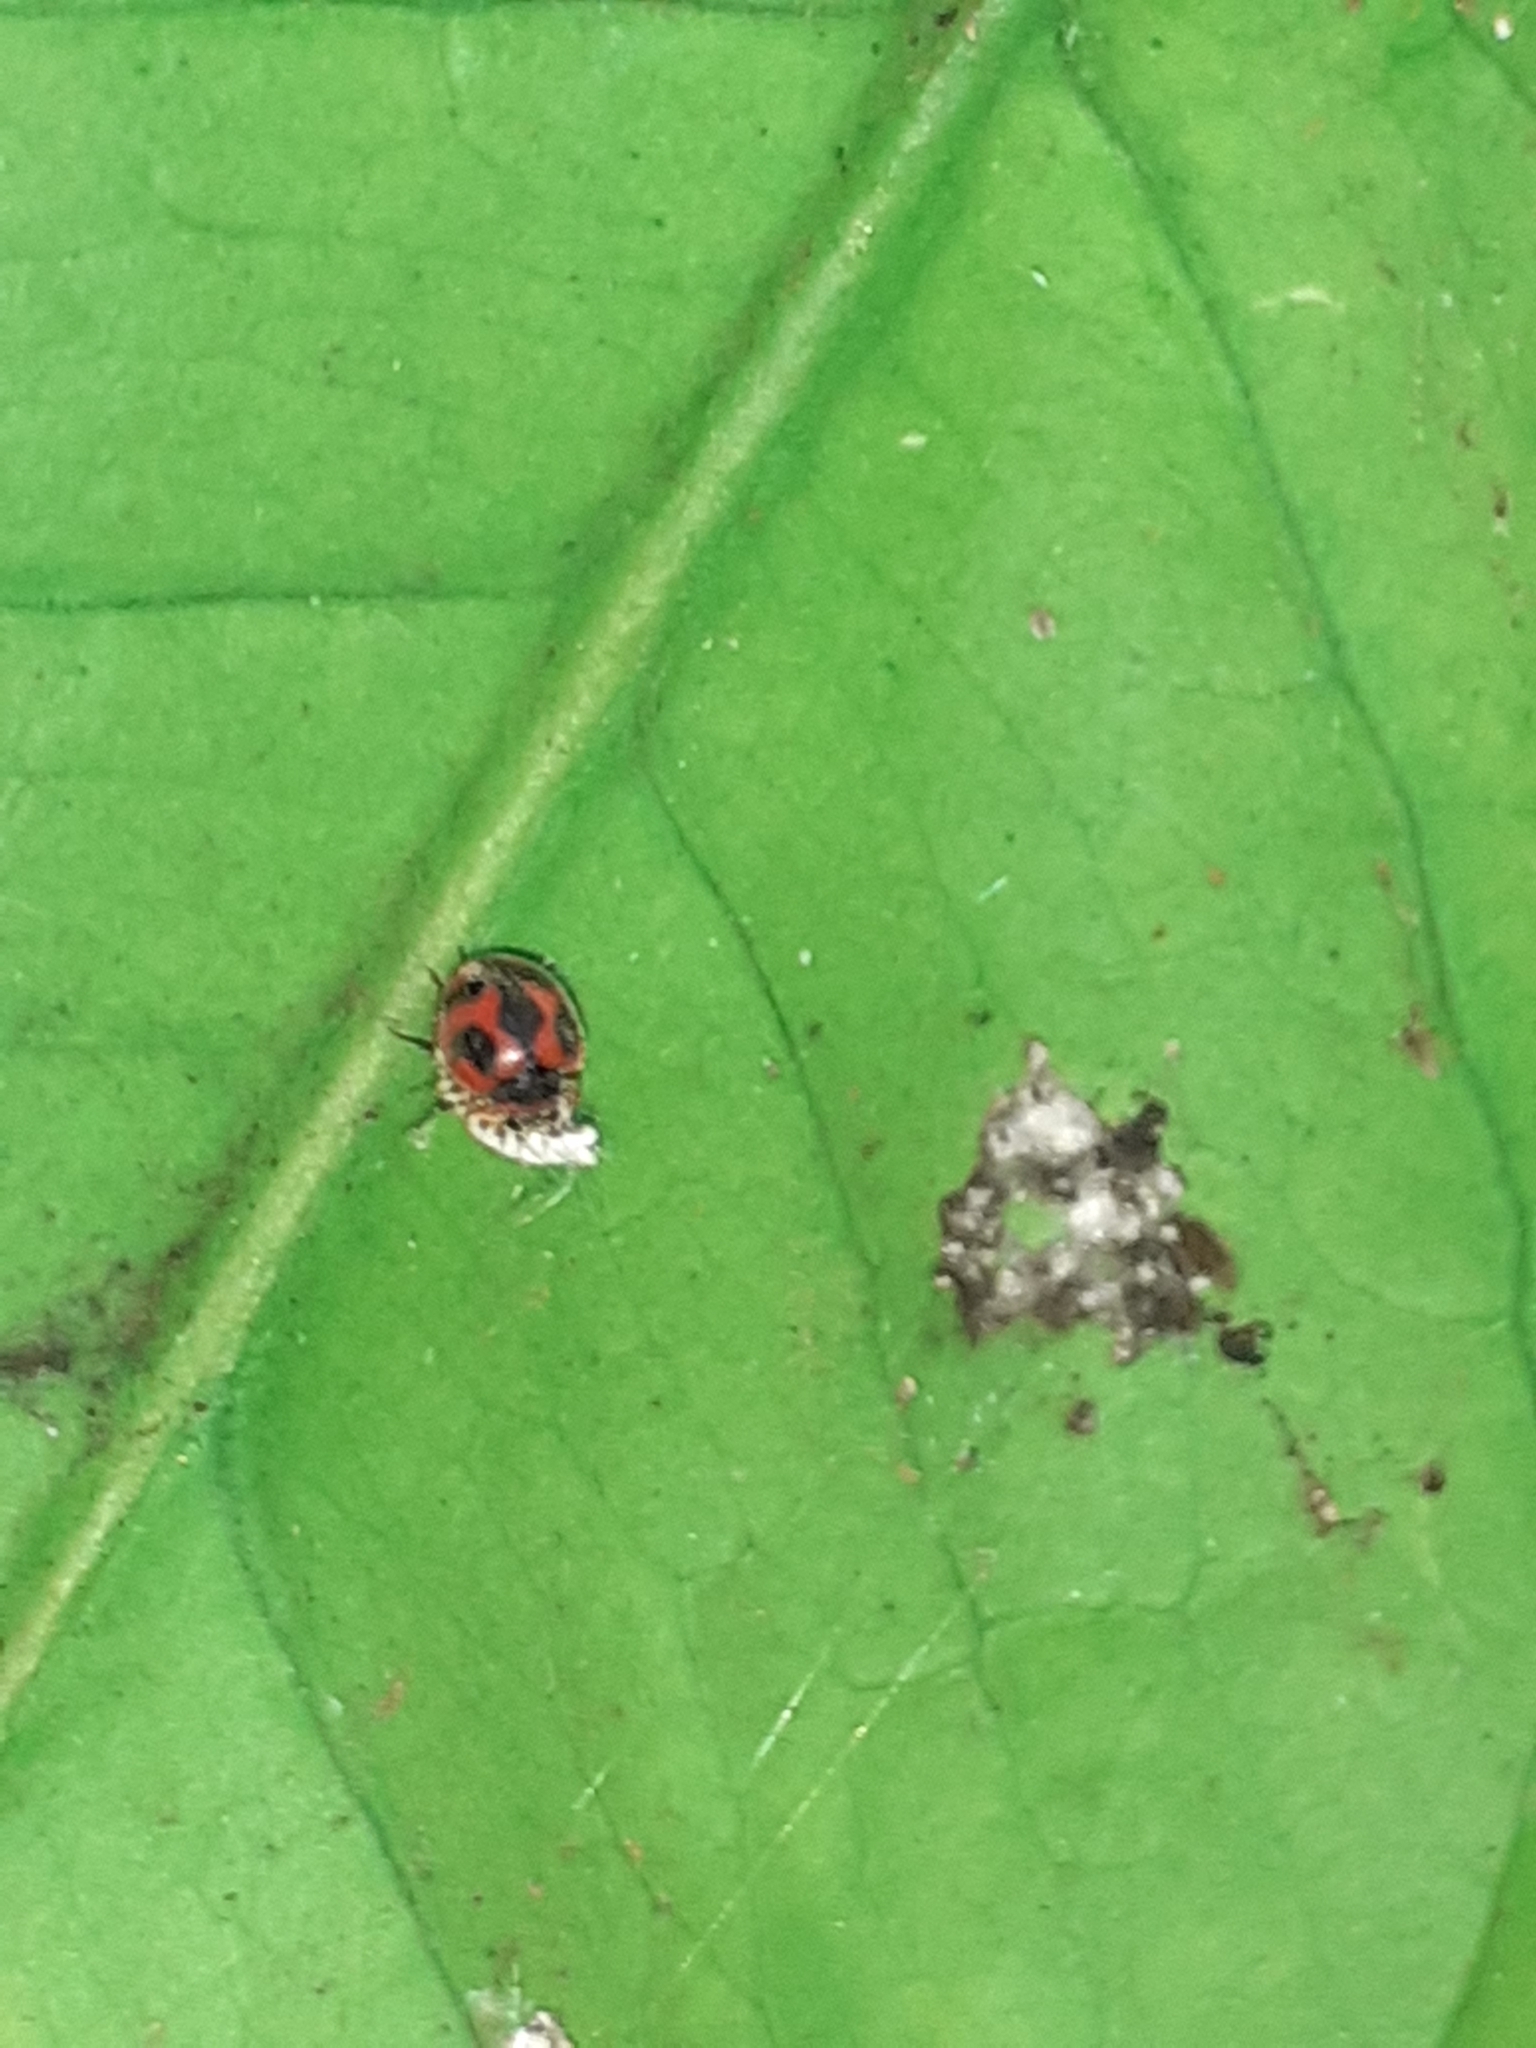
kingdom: Animalia
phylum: Arthropoda
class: Insecta
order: Coleoptera
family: Coccinellidae
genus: Novius
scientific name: Novius cardinalis
